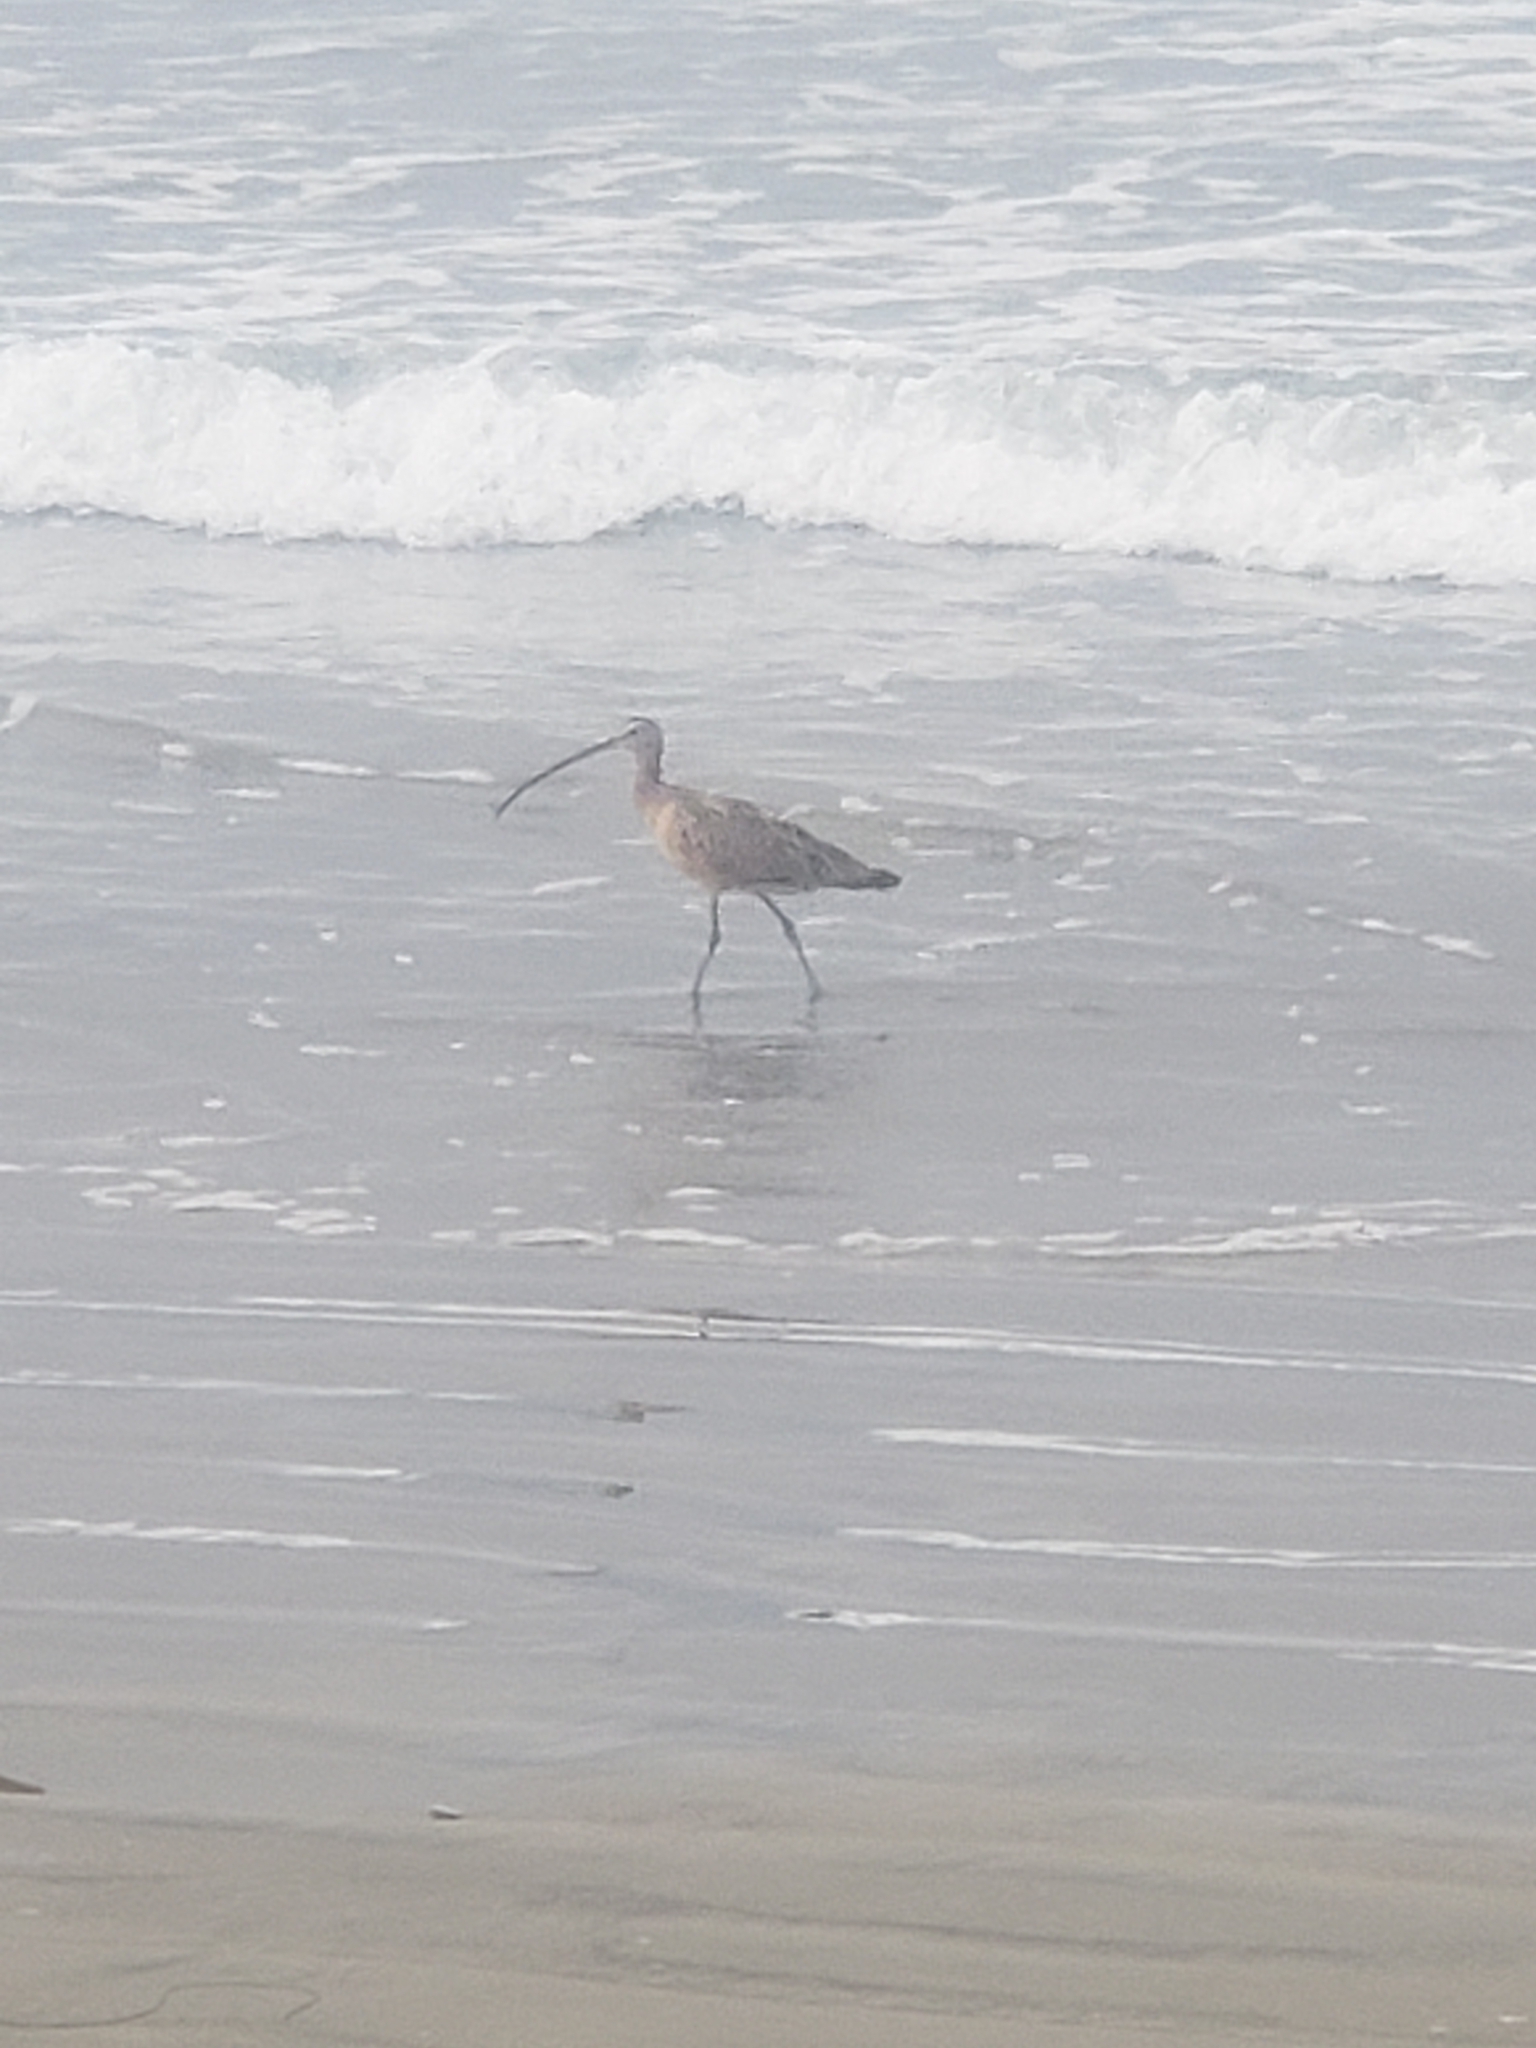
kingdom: Animalia
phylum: Chordata
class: Aves
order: Charadriiformes
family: Scolopacidae
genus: Numenius
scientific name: Numenius americanus
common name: Long-billed curlew
